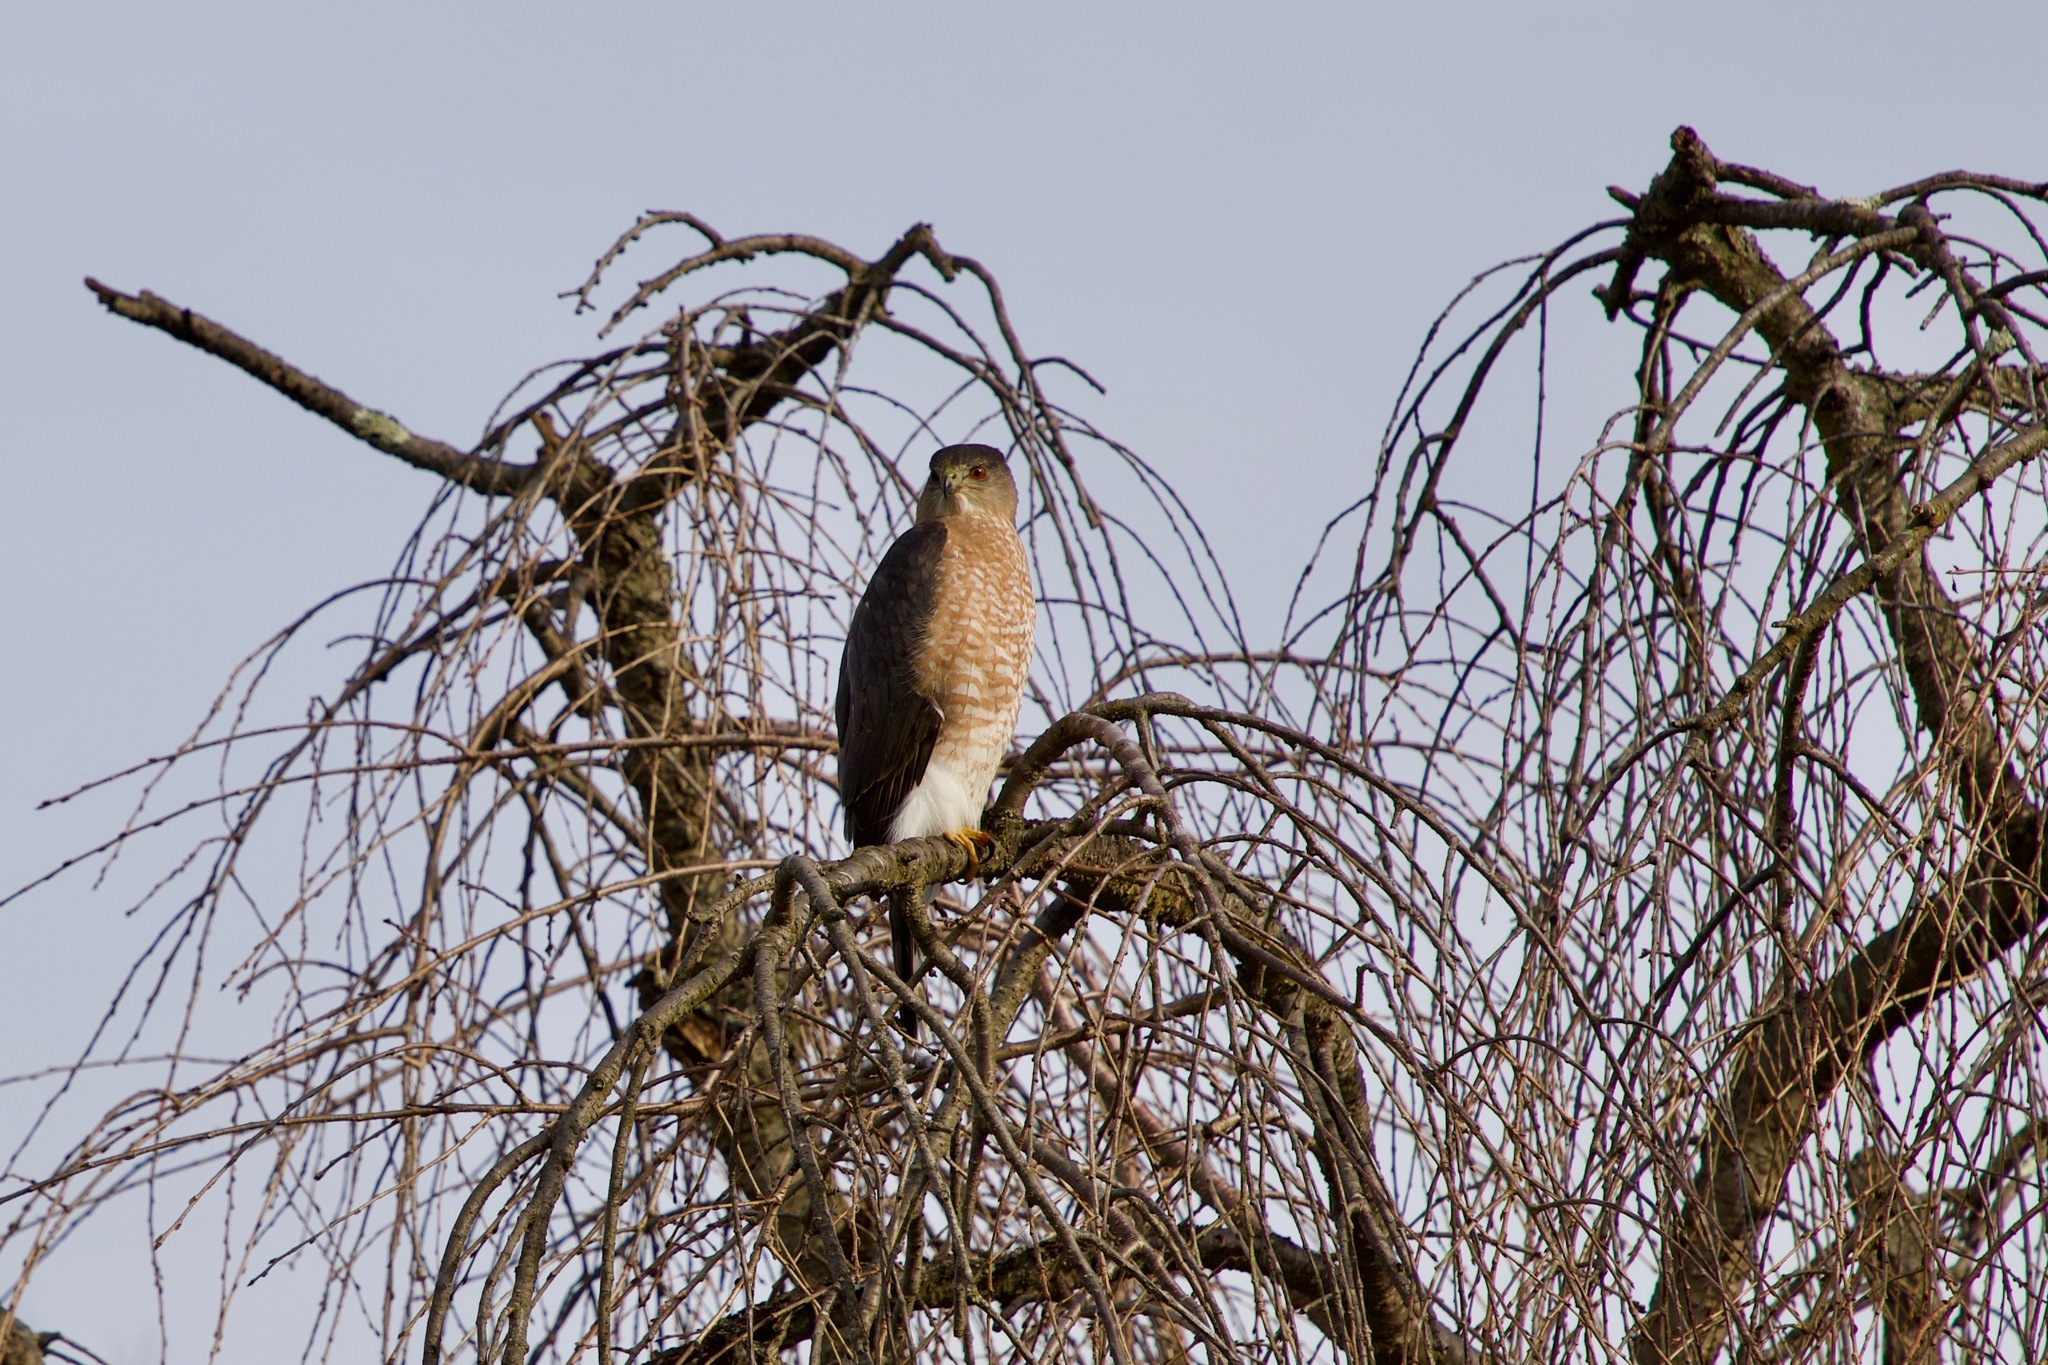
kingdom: Animalia
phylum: Chordata
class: Aves
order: Accipitriformes
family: Accipitridae
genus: Accipiter
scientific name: Accipiter cooperii
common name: Cooper's hawk
